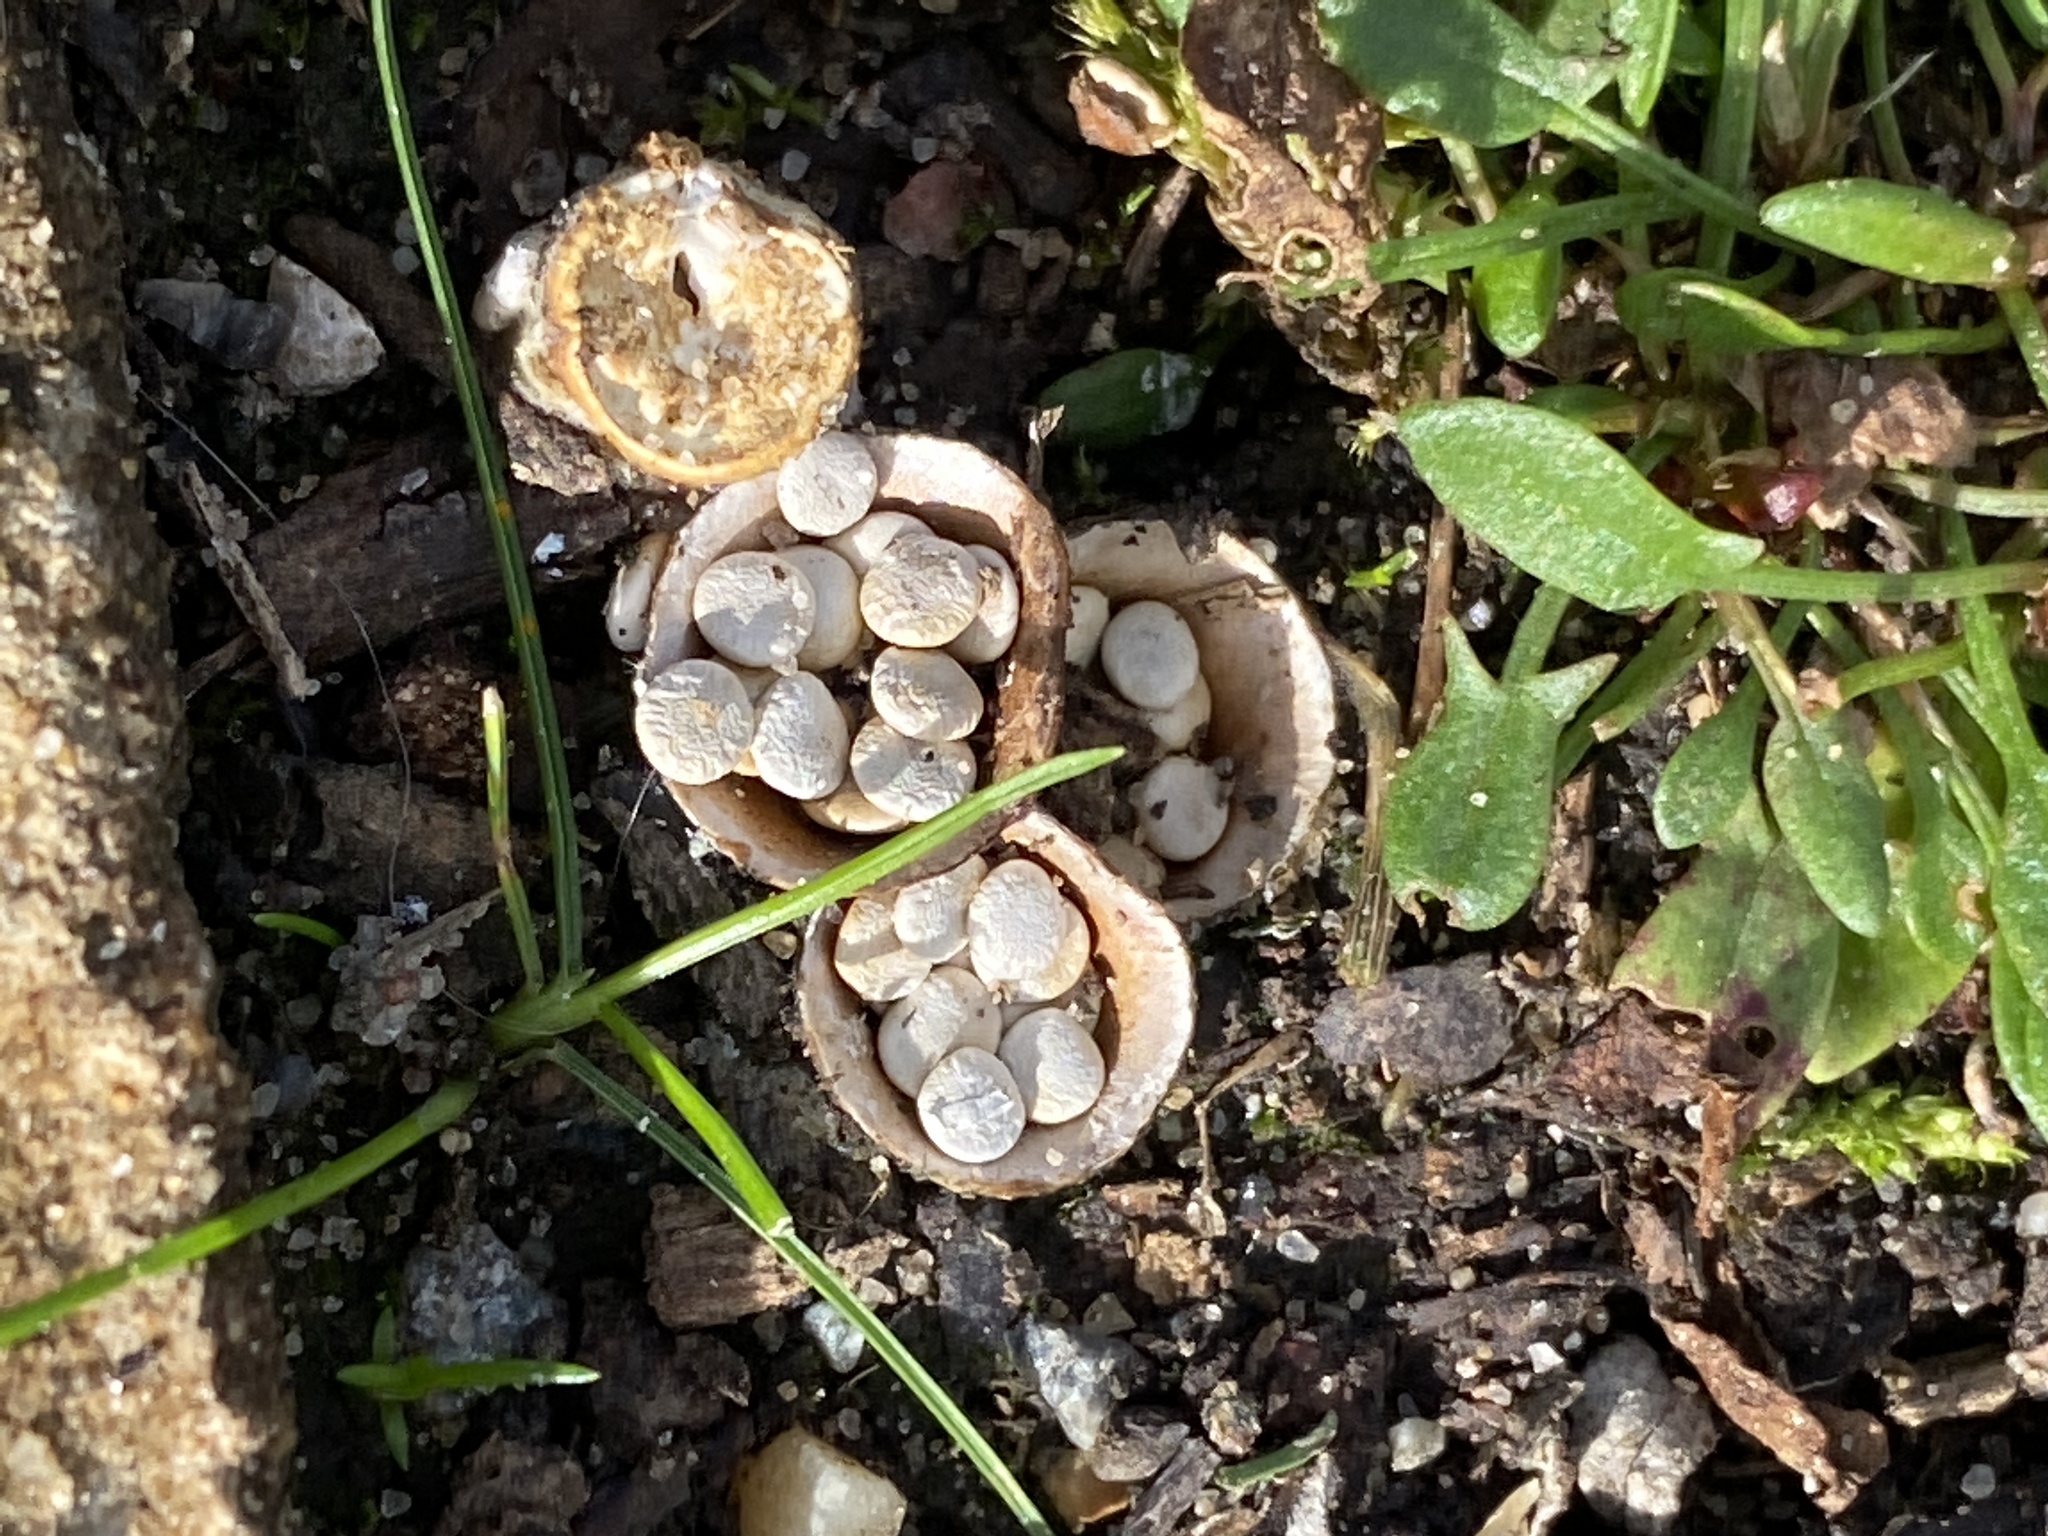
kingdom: Fungi
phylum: Basidiomycota
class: Agaricomycetes
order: Agaricales
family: Nidulariaceae
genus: Crucibulum
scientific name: Crucibulum laeve
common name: Common bird's nest
